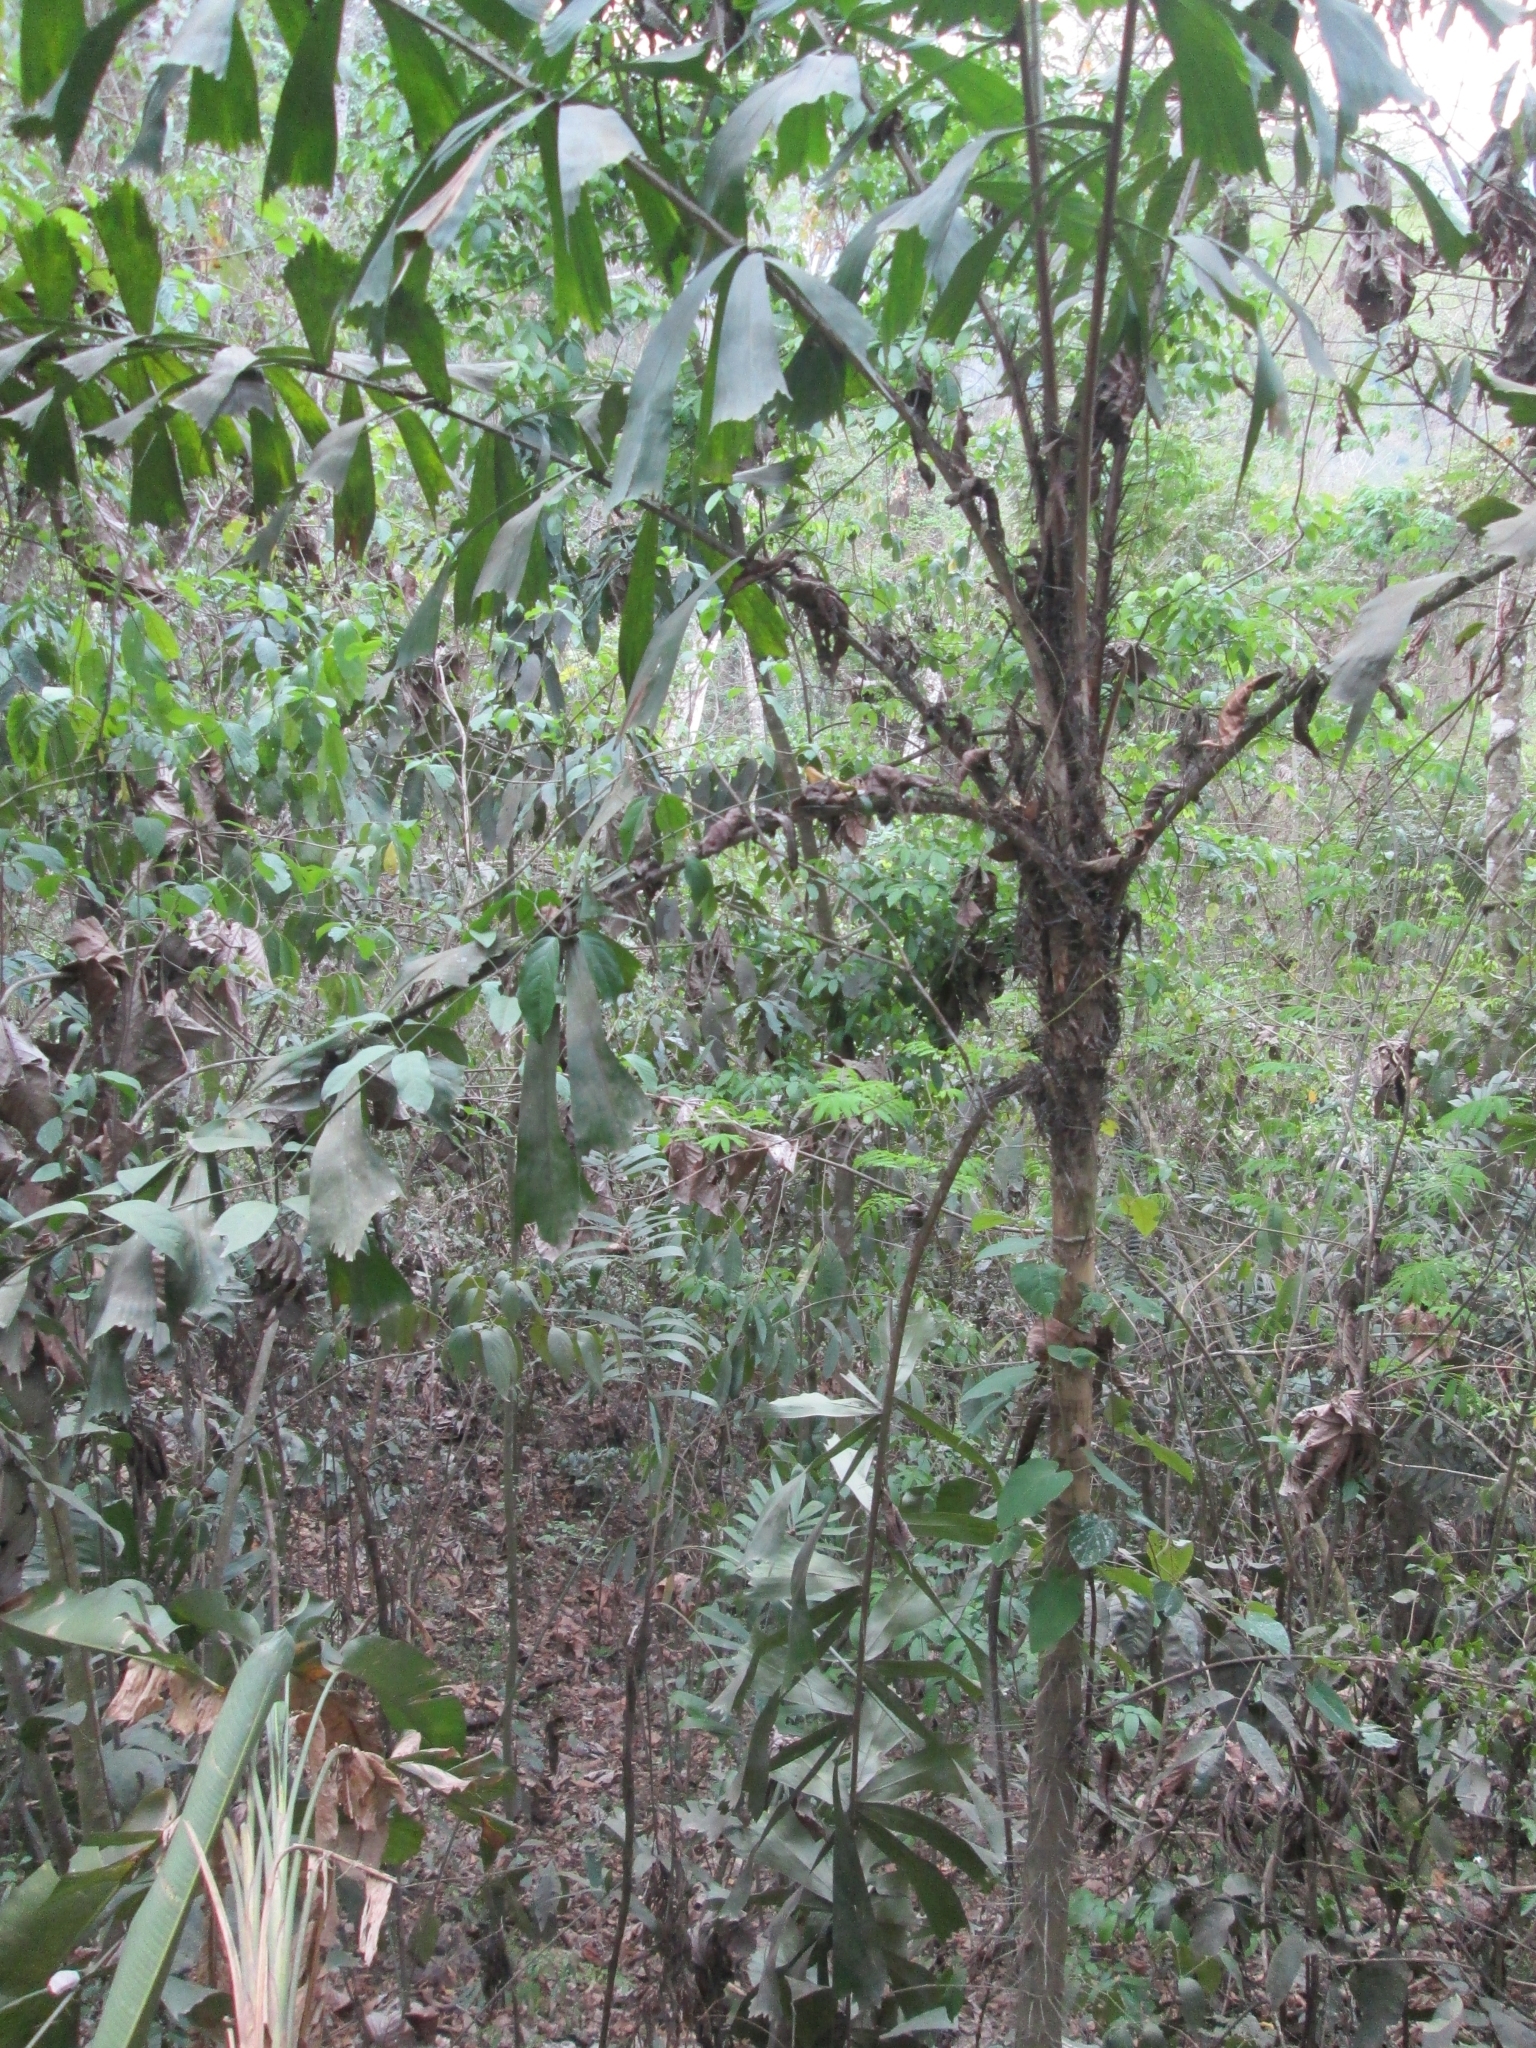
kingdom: Plantae
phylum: Tracheophyta
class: Liliopsida
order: Arecales
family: Arecaceae
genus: Aiphanes
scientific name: Aiphanes horrida
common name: Ruffle palm
